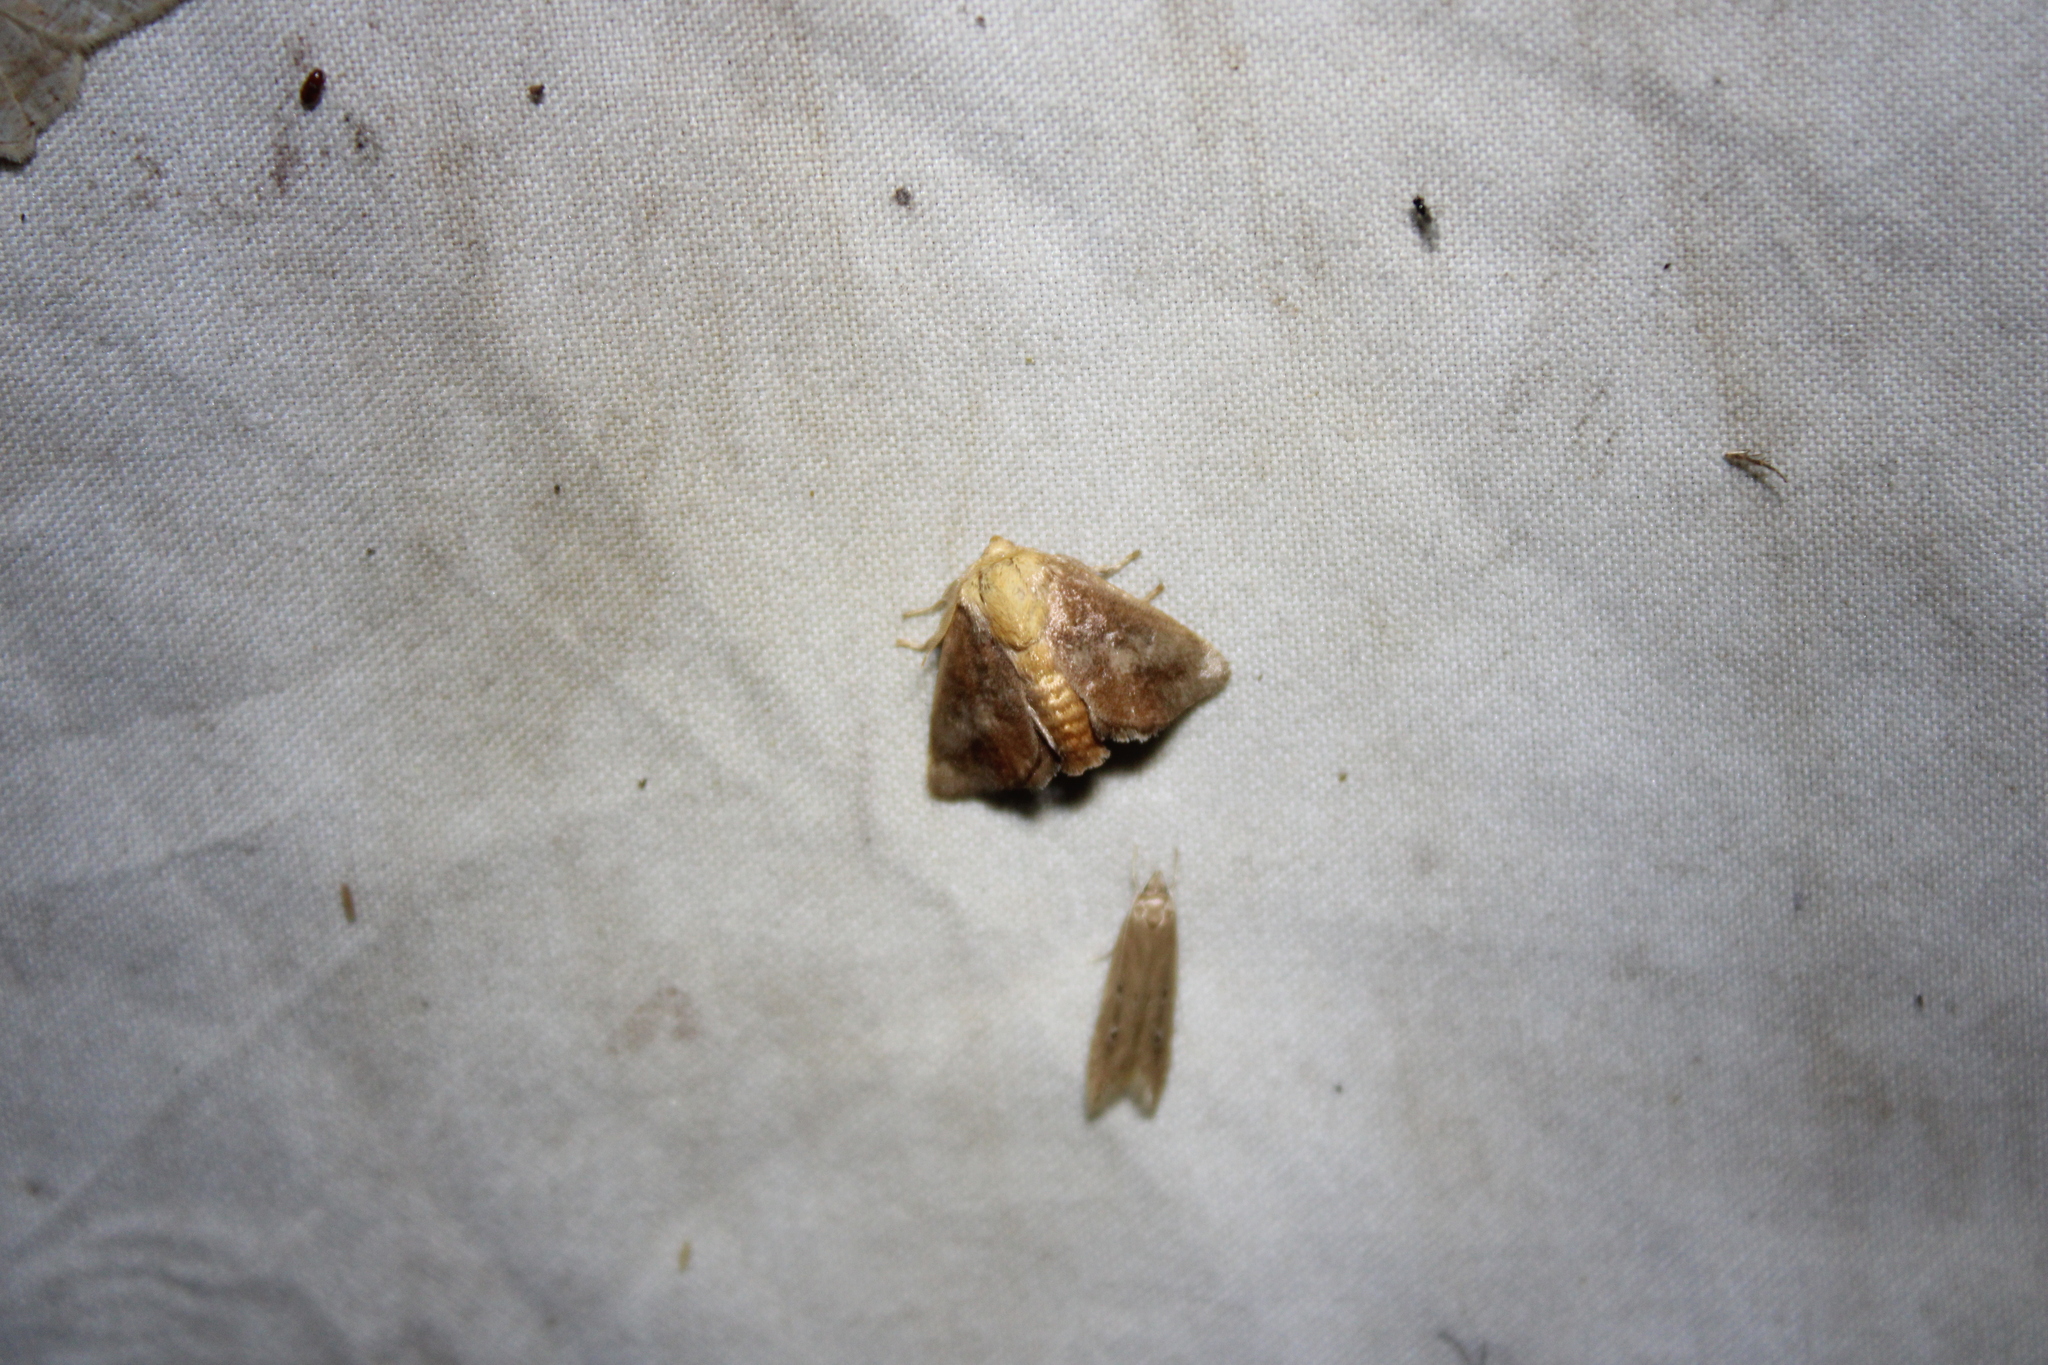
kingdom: Animalia
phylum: Arthropoda
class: Insecta
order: Lepidoptera
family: Limacodidae
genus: Isa
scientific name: Isa textula
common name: Crowned slug moth
